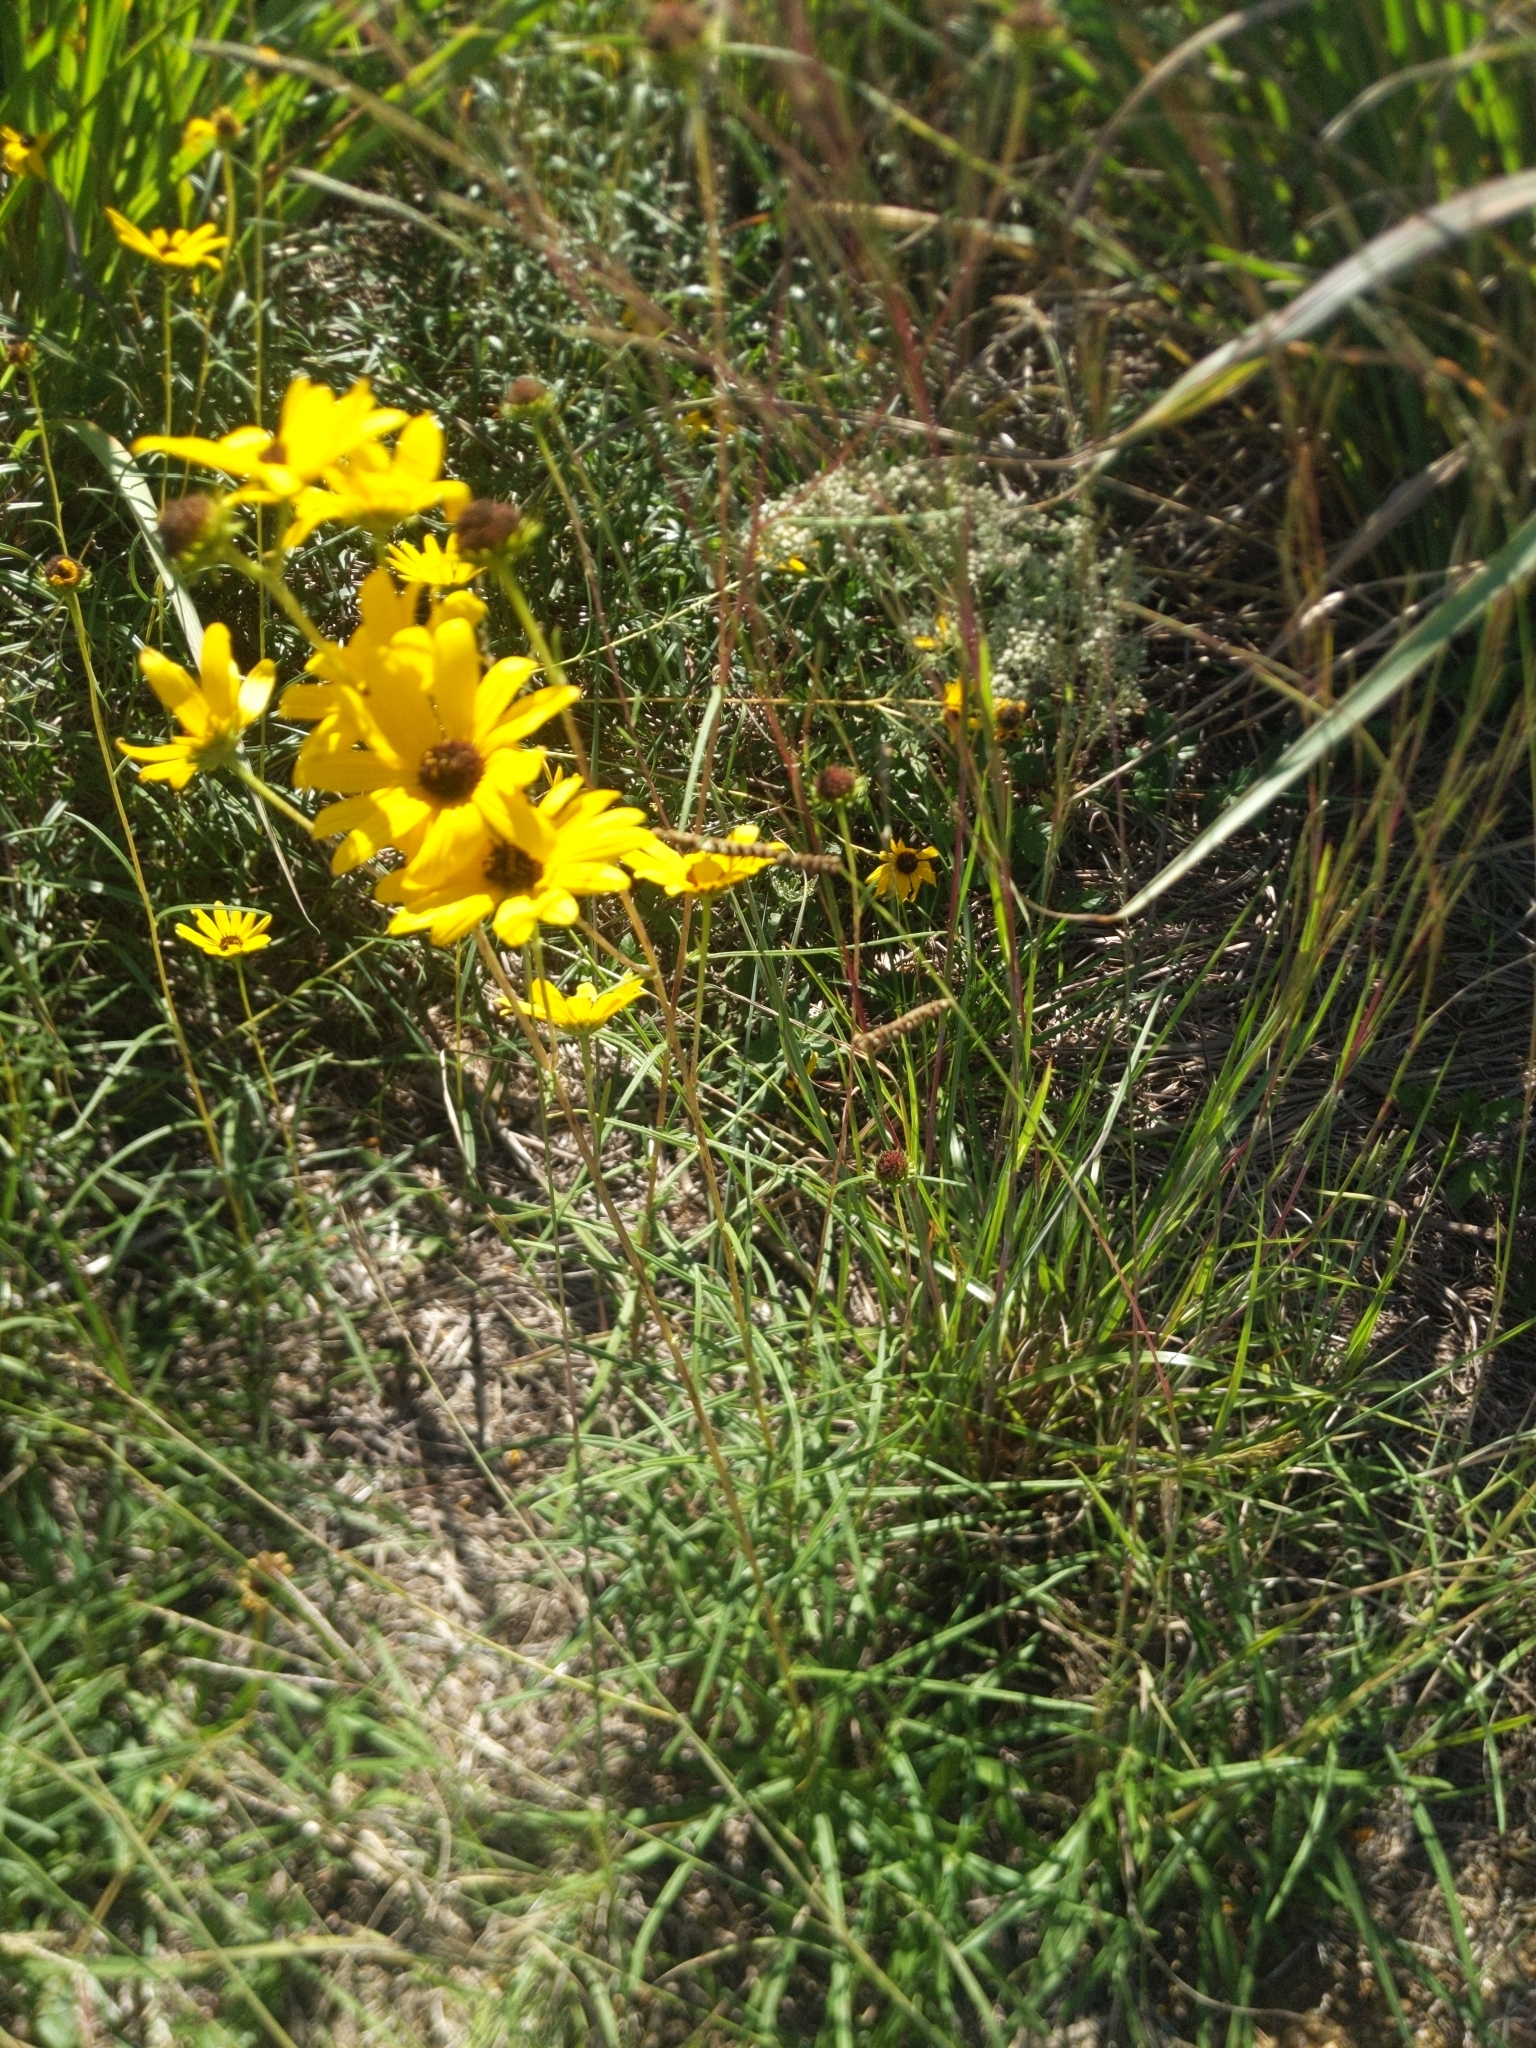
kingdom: Plantae
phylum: Tracheophyta
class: Magnoliopsida
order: Asterales
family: Asteraceae
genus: Helianthus
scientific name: Helianthus angustifolius
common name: Swamp sunflower
